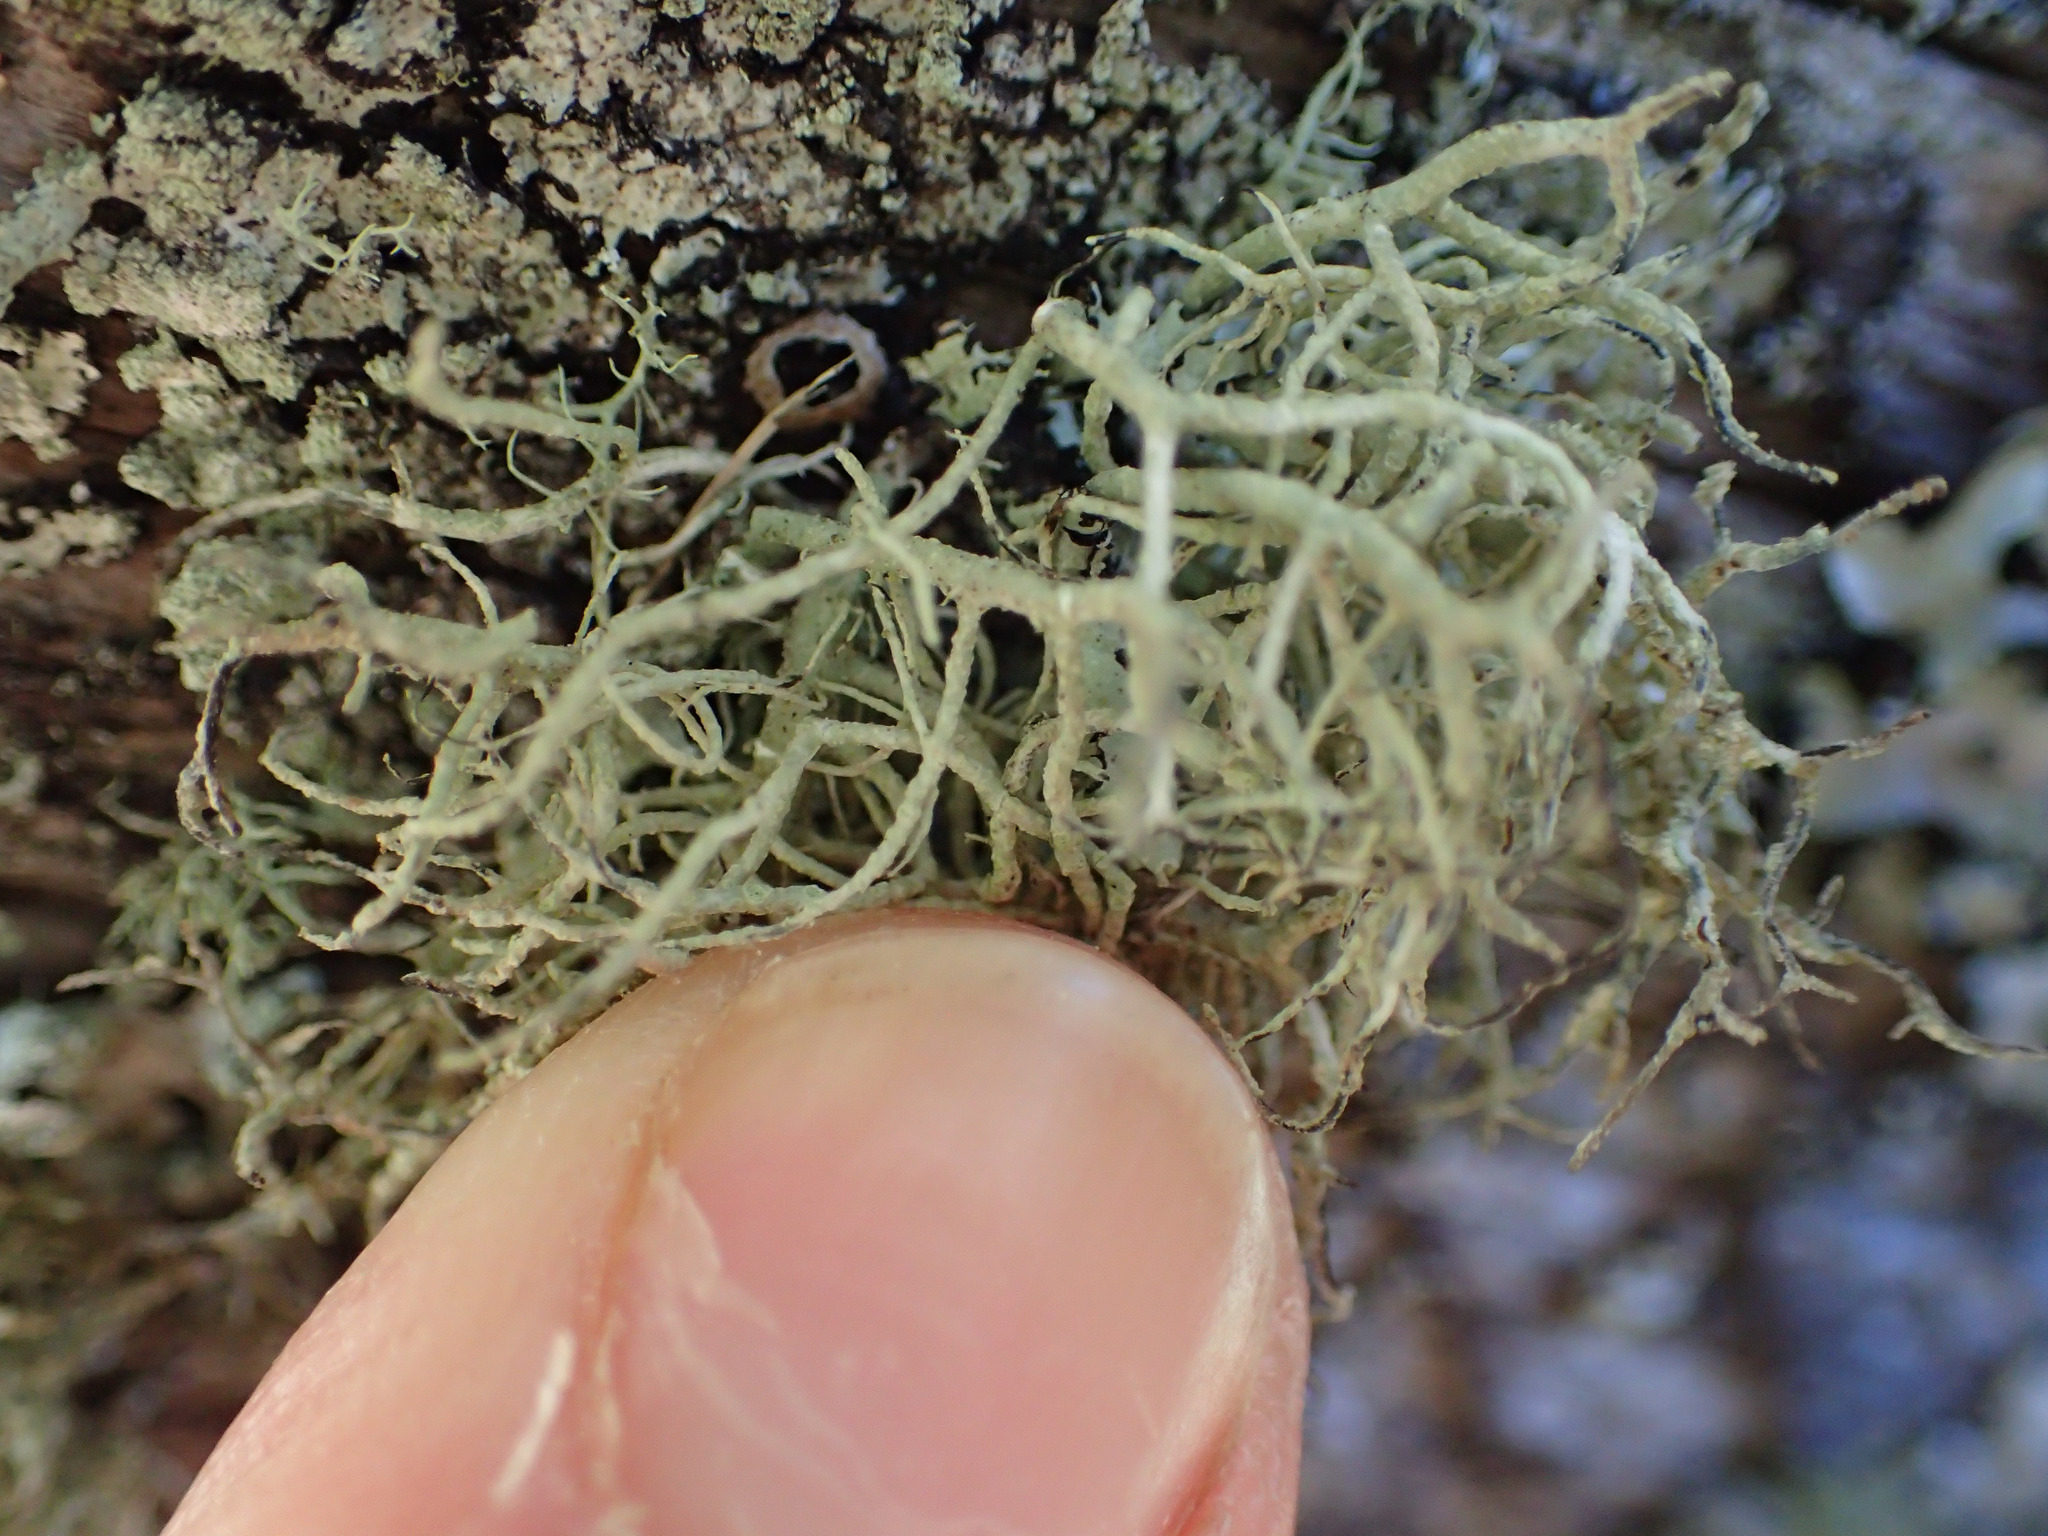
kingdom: Fungi
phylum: Ascomycota
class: Lecanoromycetes
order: Lecanorales
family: Parmeliaceae
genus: Usnea
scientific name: Usnea cornuta
